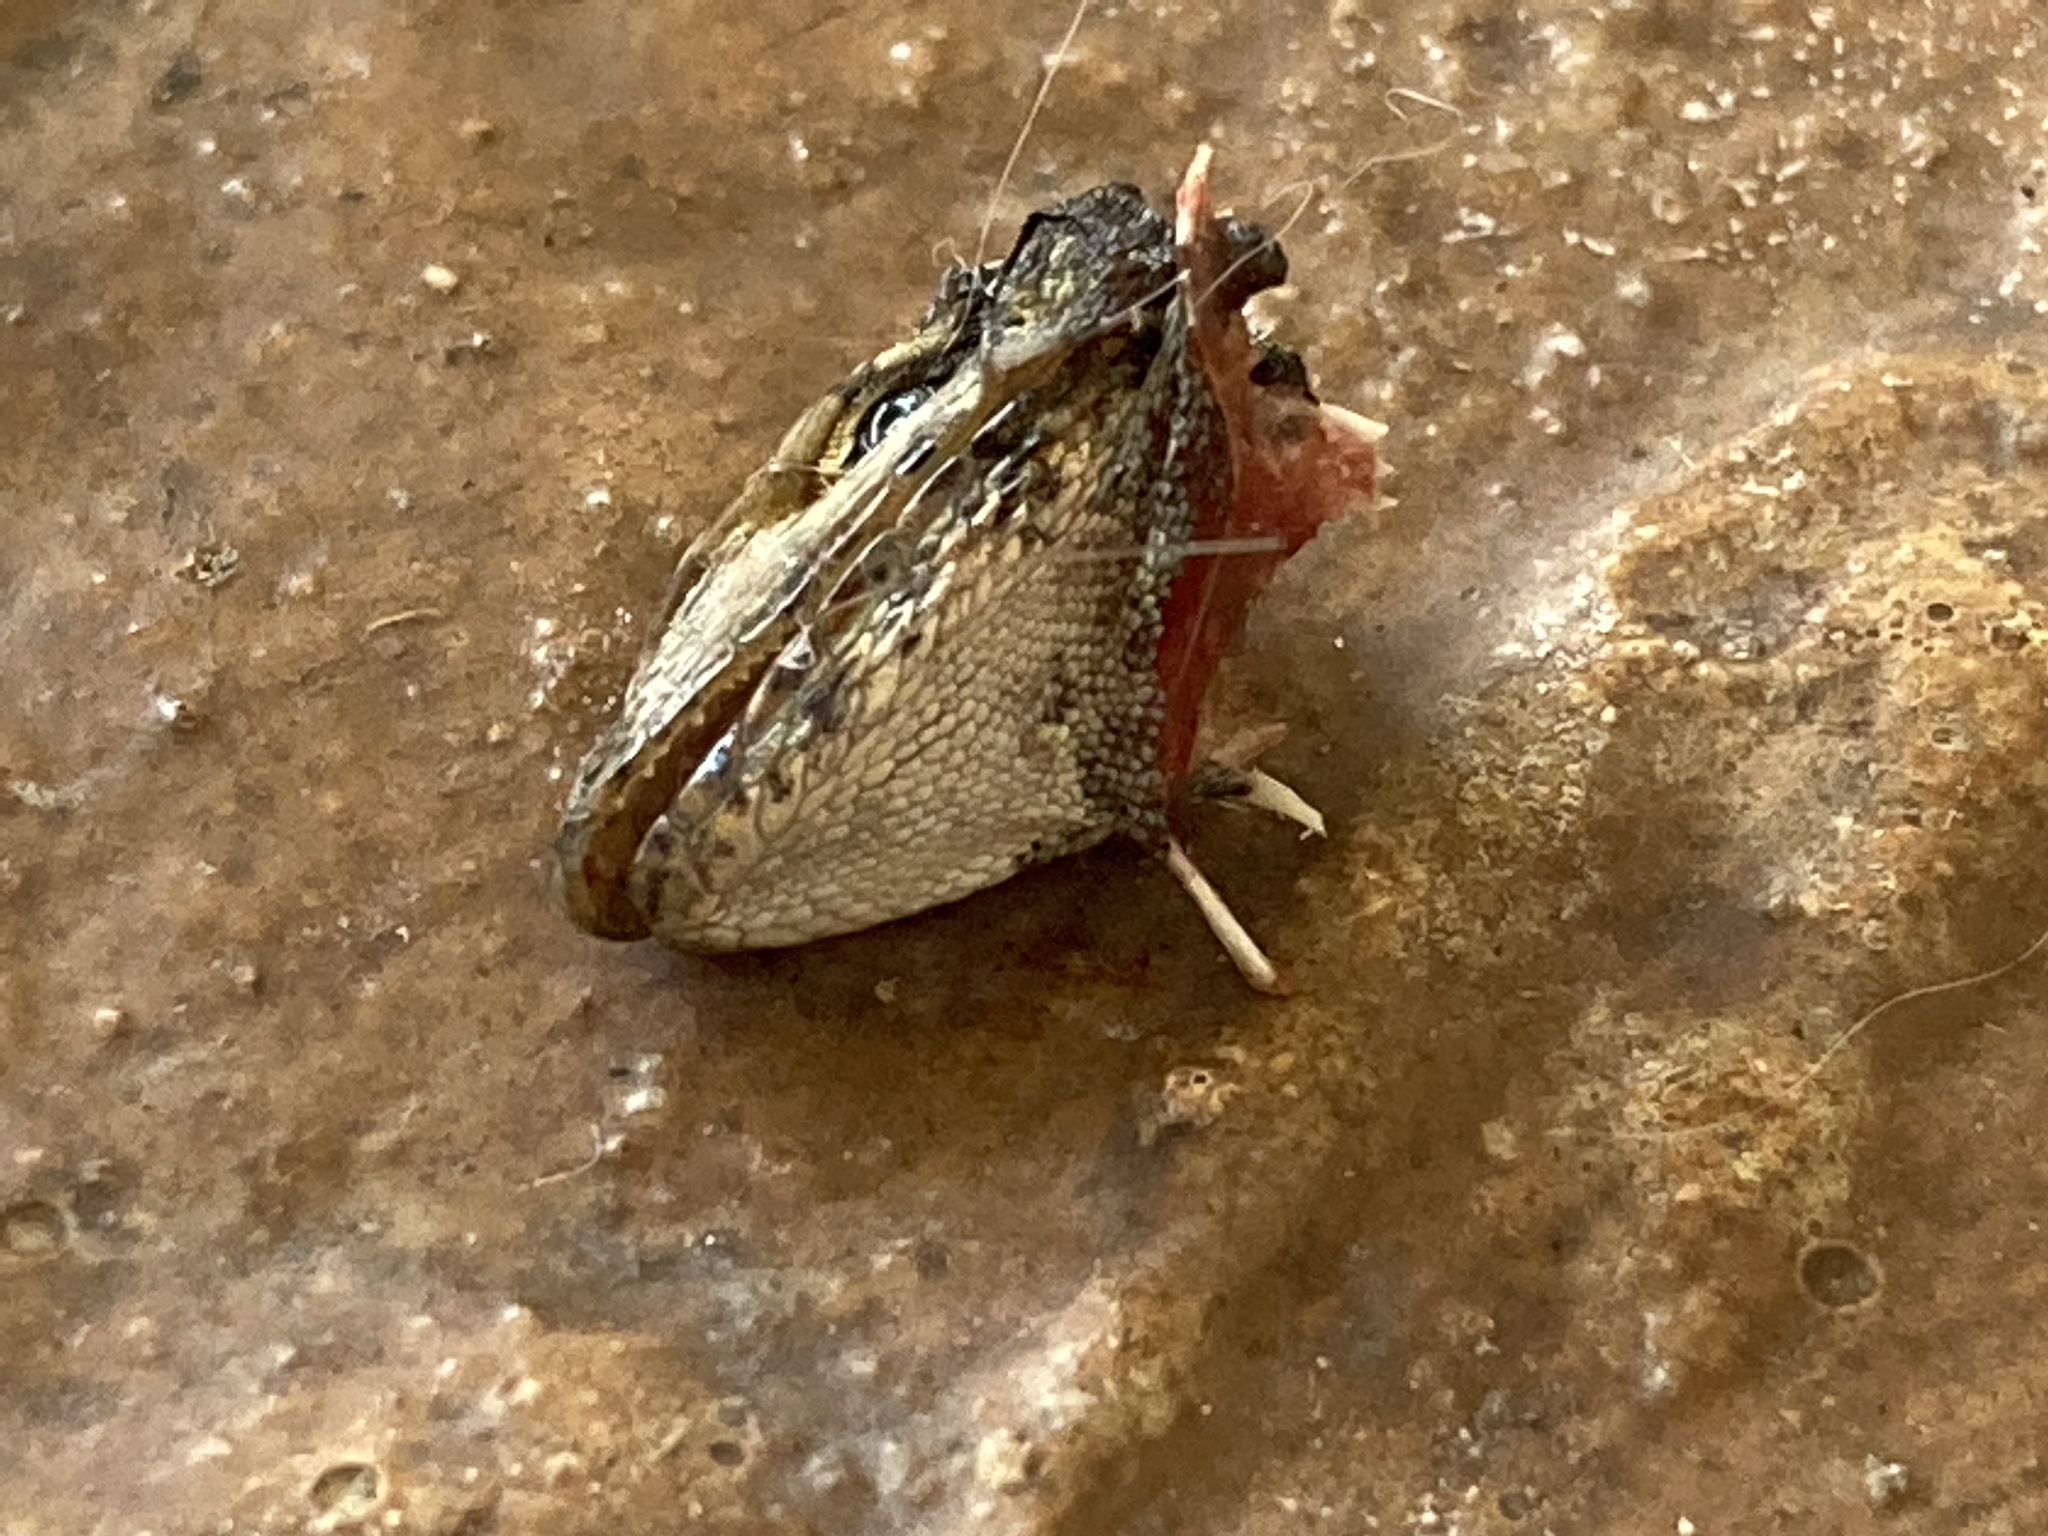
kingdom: Animalia
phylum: Chordata
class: Squamata
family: Leiocephalidae
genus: Leiocephalus
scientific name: Leiocephalus carinatus
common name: Northern curly-tailed lizard
